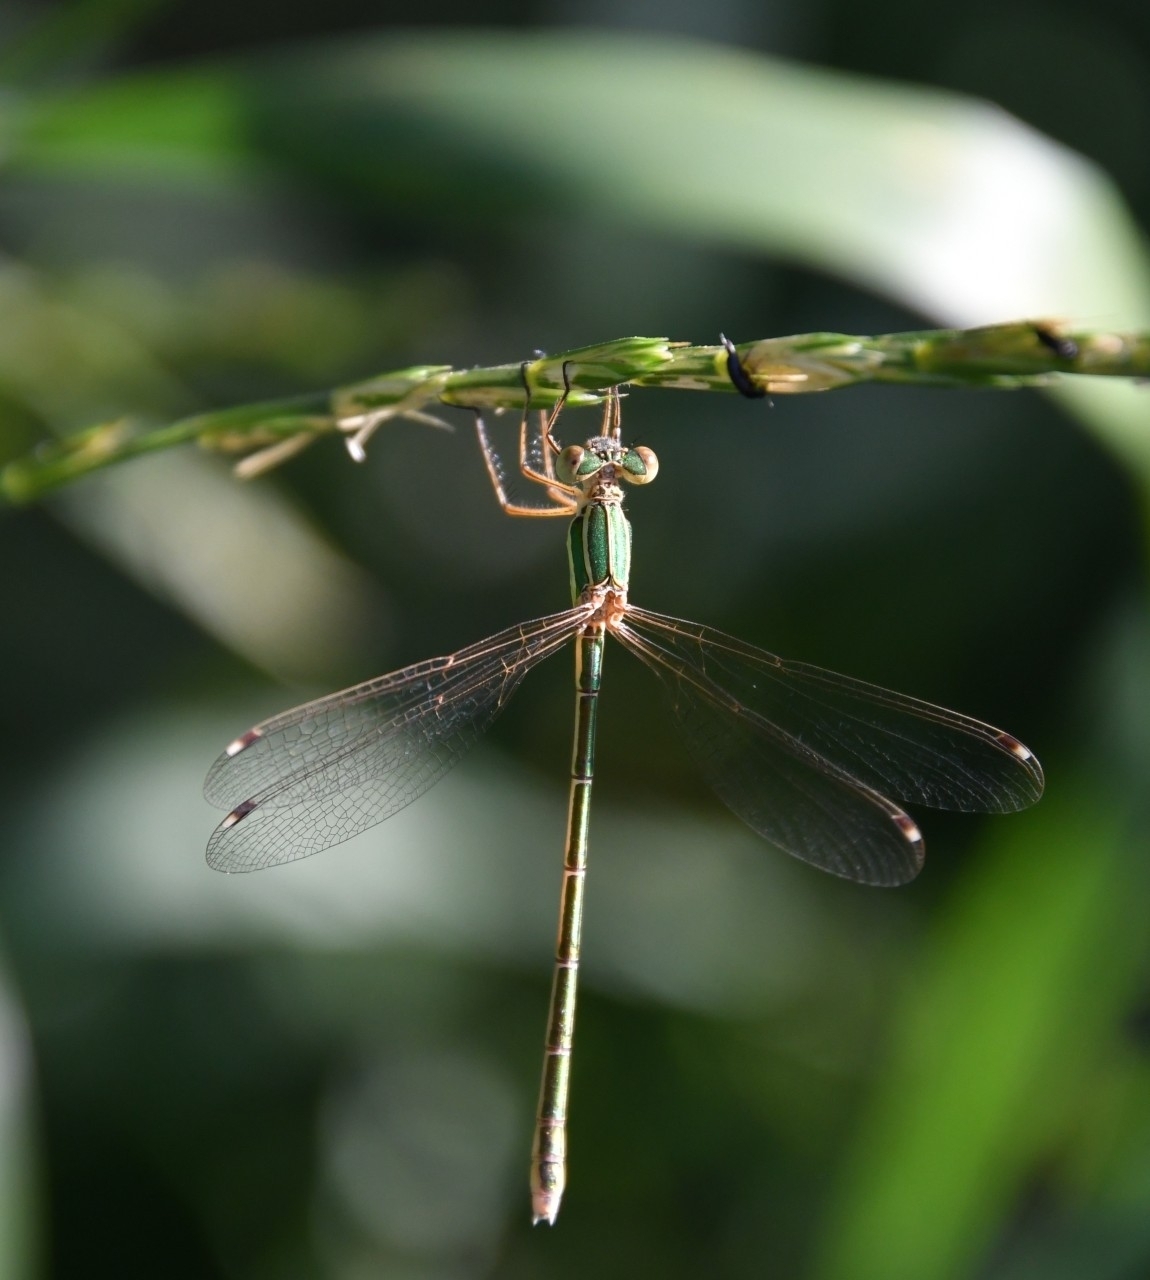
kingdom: Animalia
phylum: Arthropoda
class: Insecta
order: Odonata
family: Lestidae
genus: Lestes
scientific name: Lestes barbarus
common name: Migrant spreadwing
